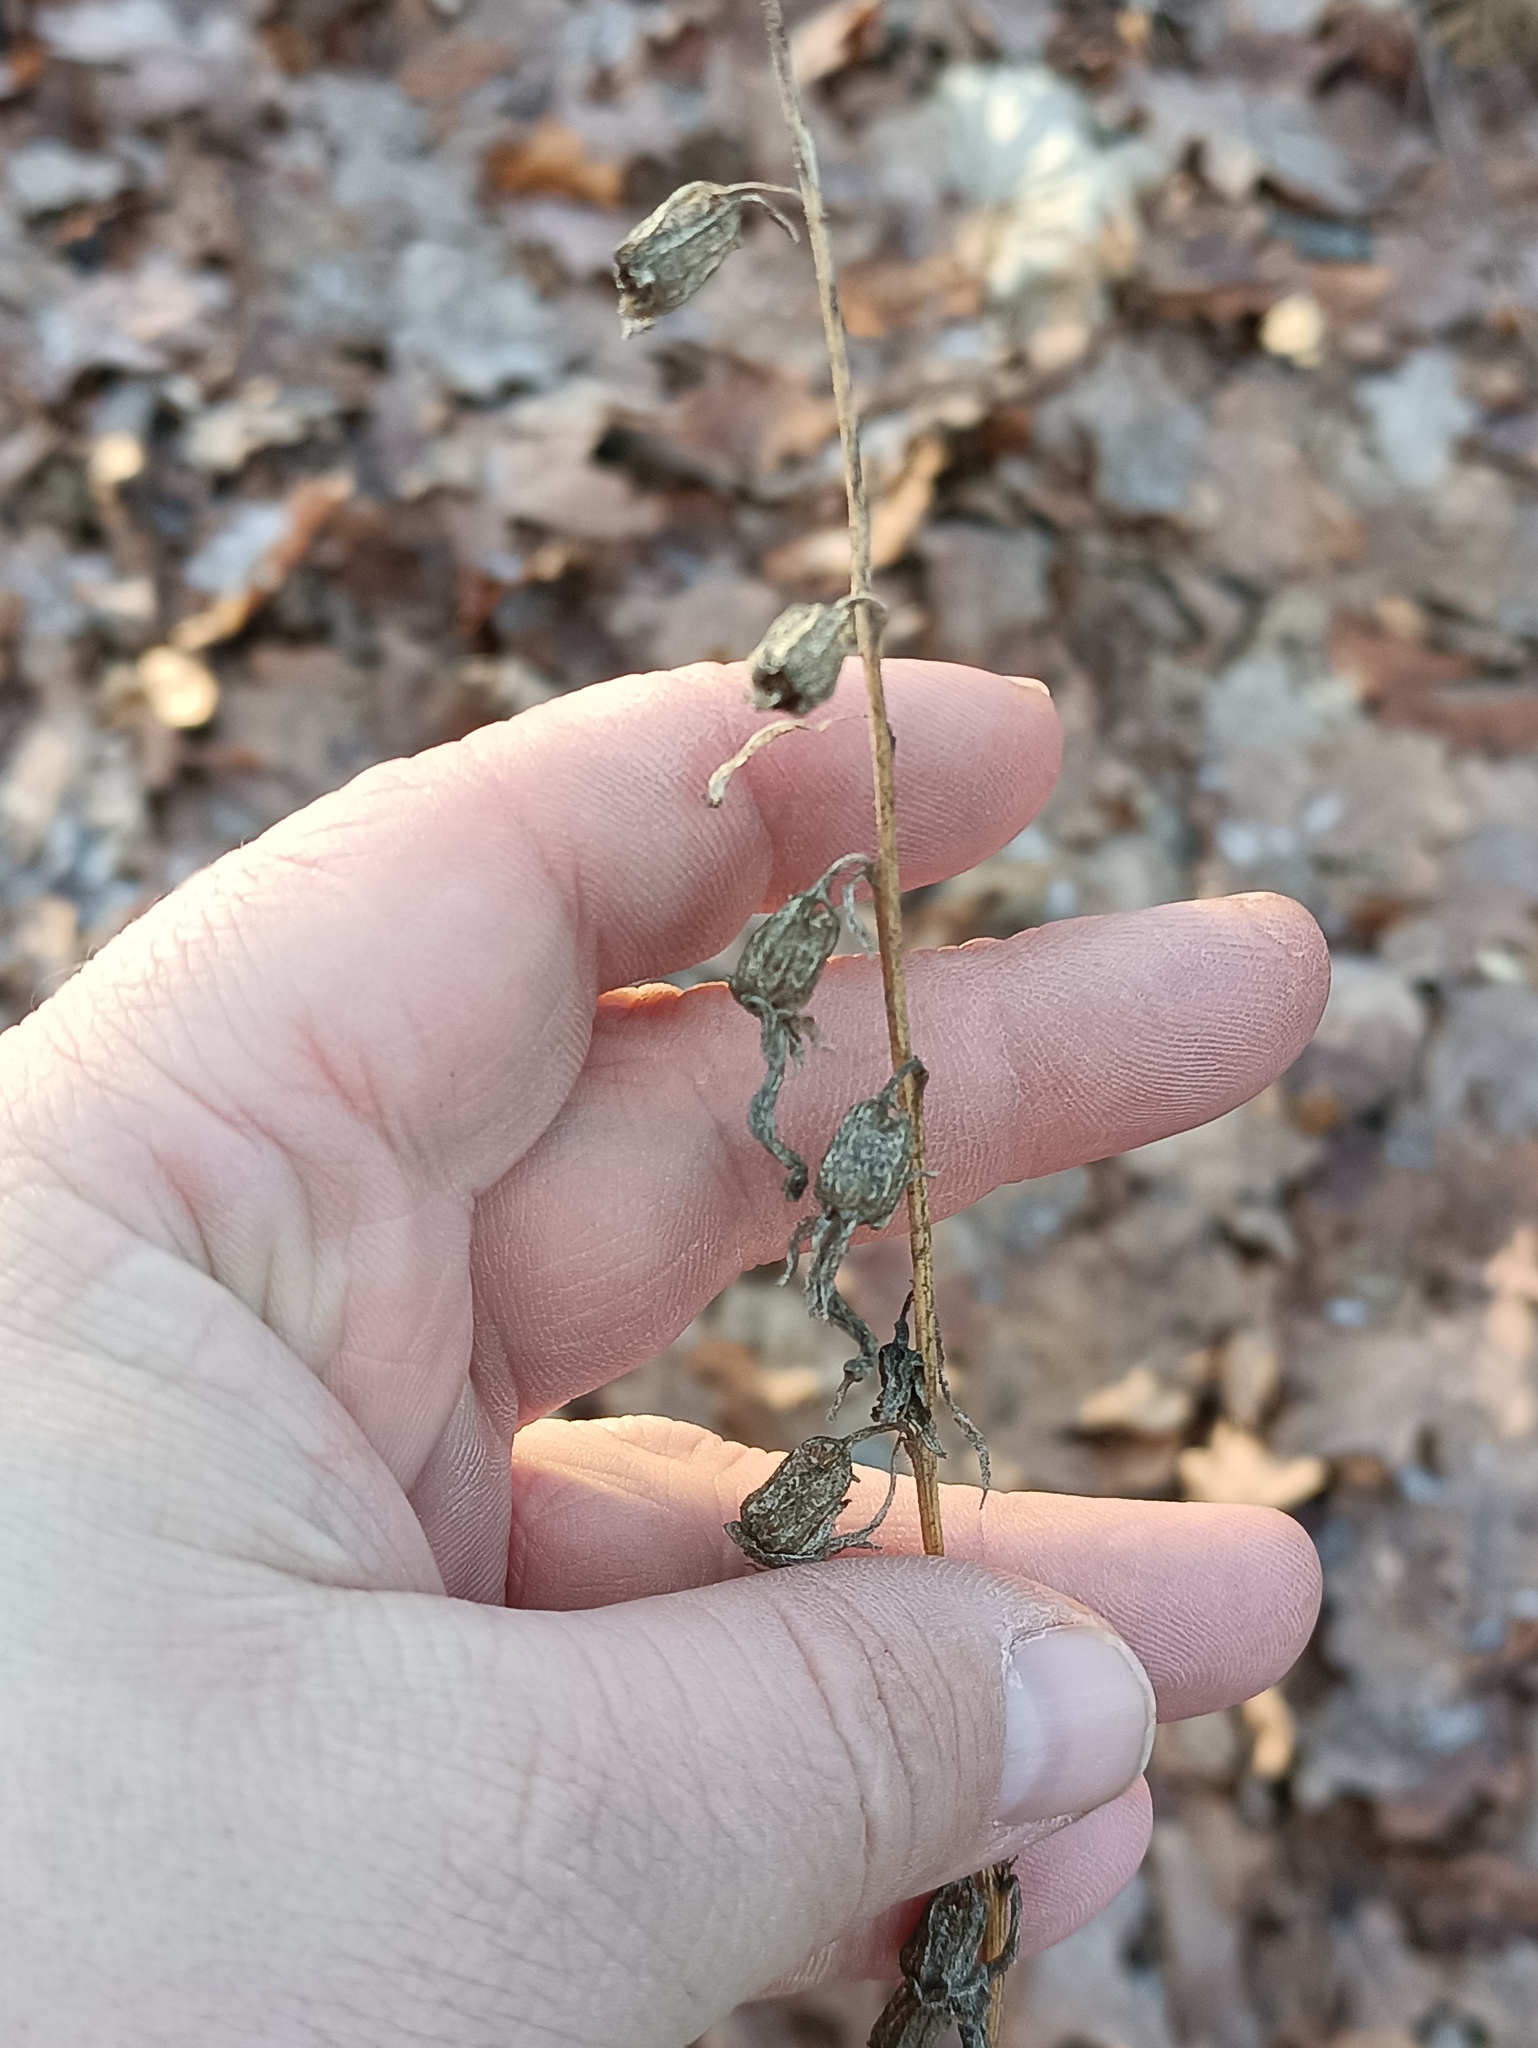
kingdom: Plantae
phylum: Tracheophyta
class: Magnoliopsida
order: Asterales
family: Campanulaceae
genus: Campanula
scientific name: Campanula rapunculoides
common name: Creeping bellflower
